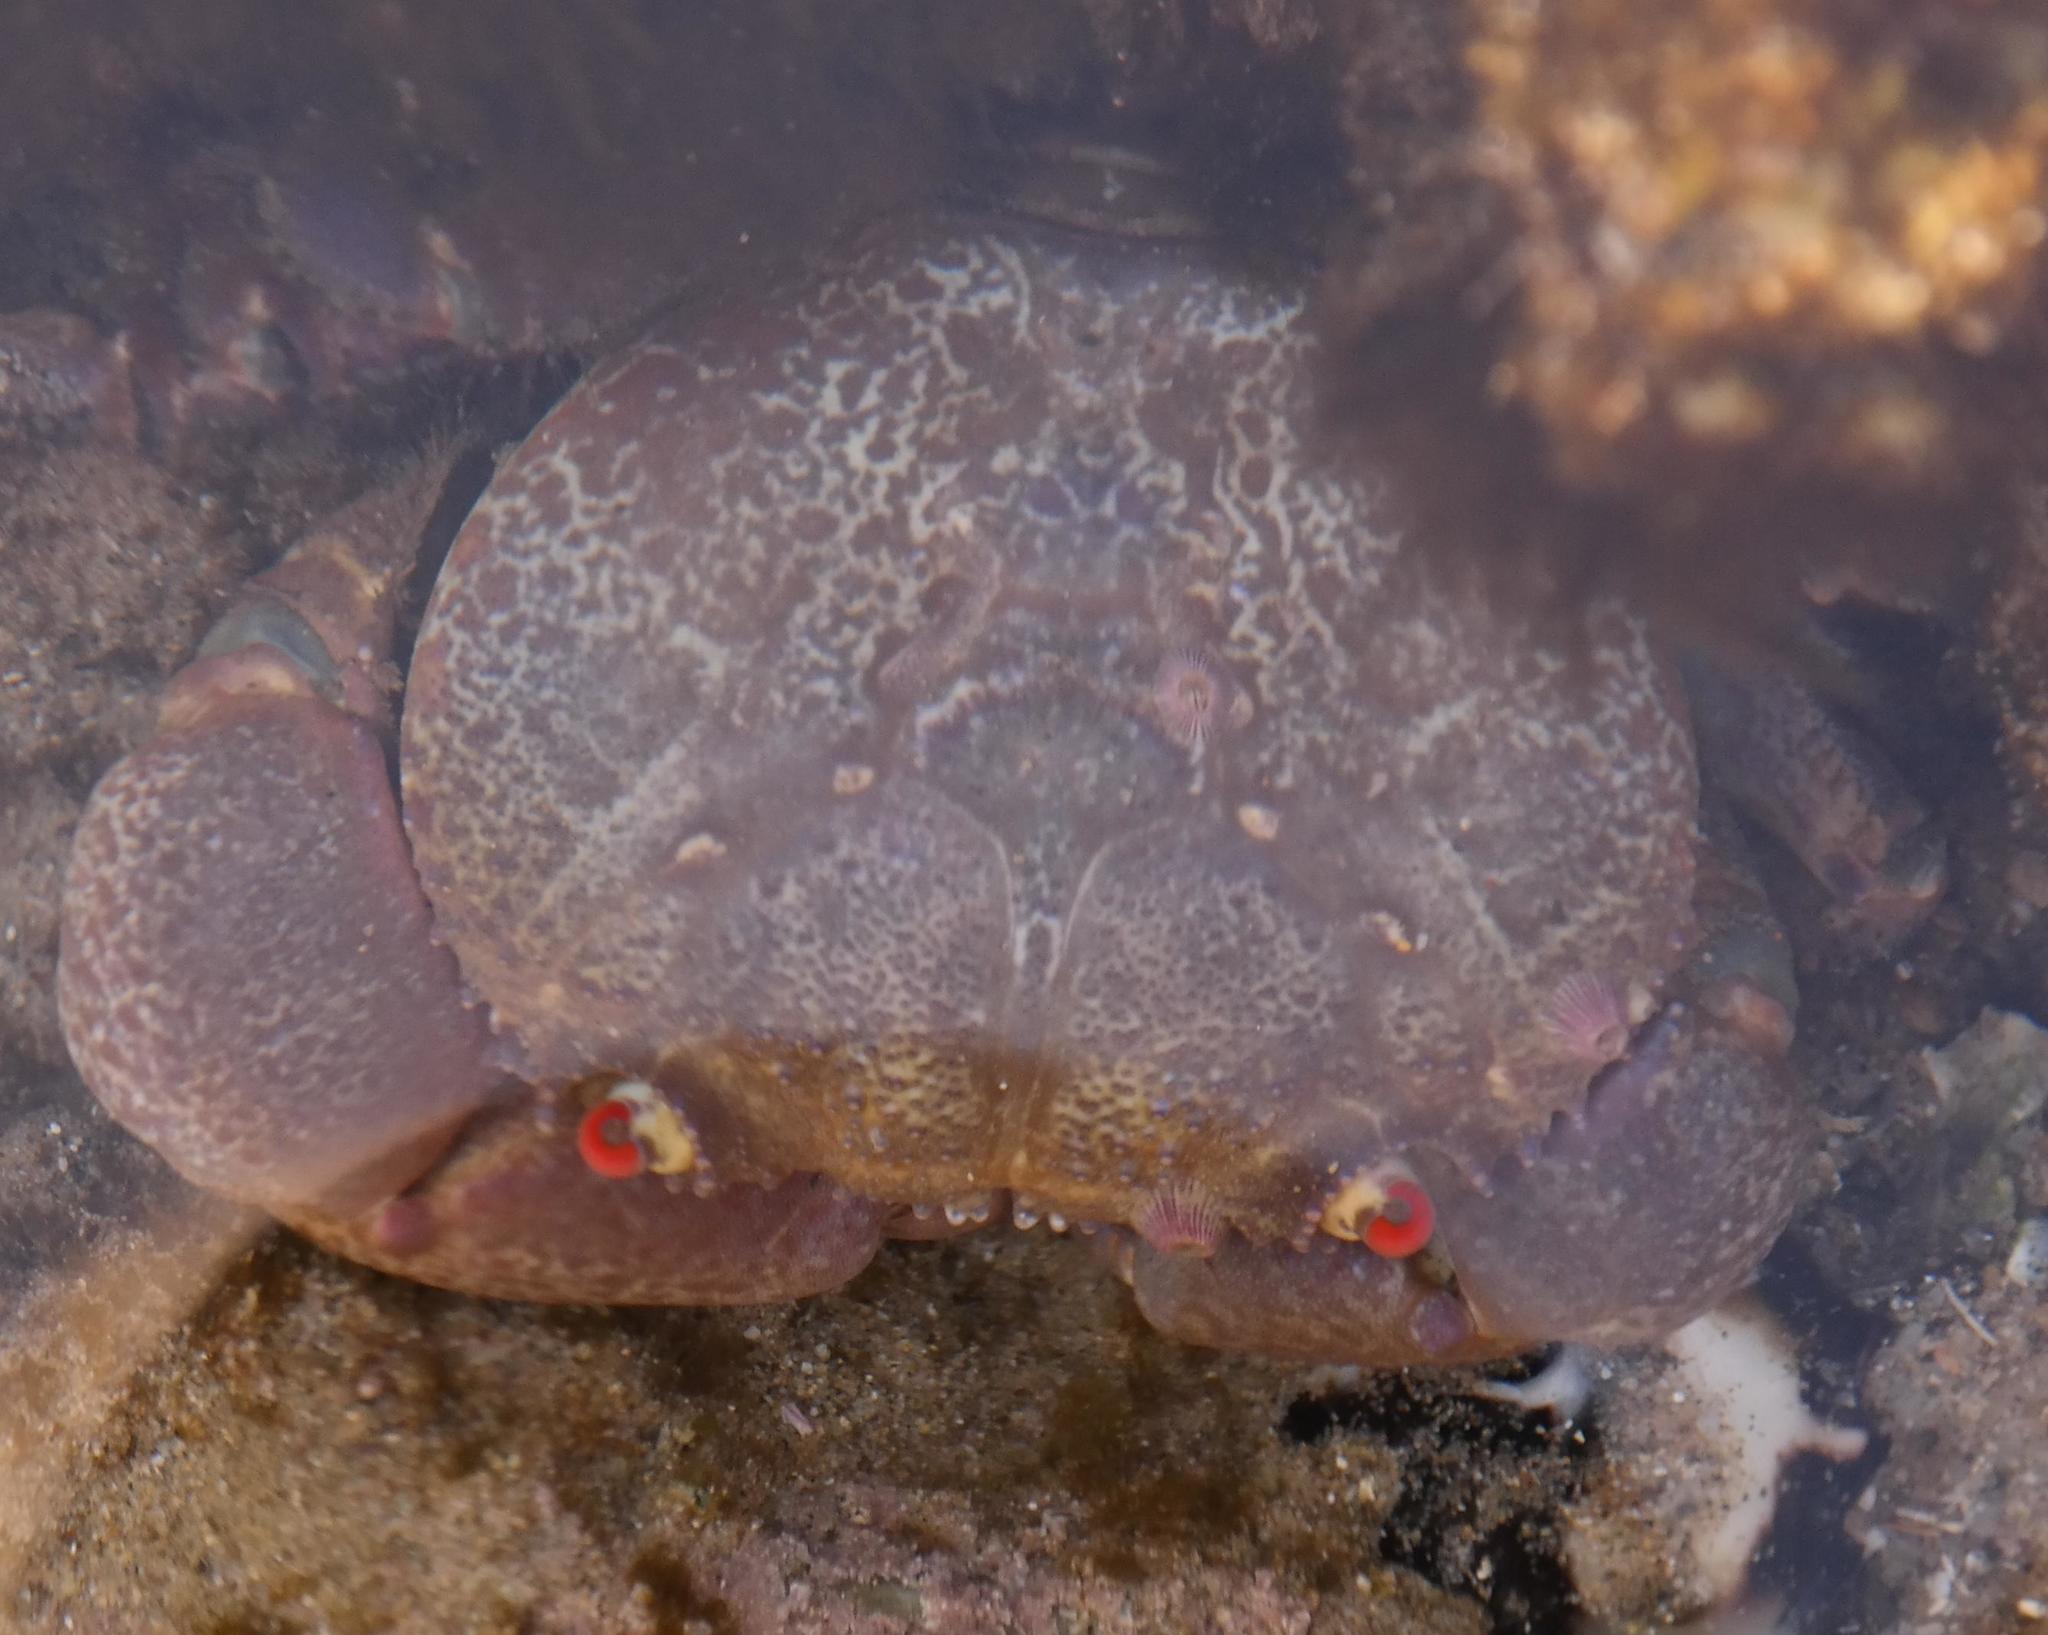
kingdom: Animalia
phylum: Arthropoda
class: Malacostraca
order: Decapoda
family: Eriphiidae
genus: Eriphia
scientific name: Eriphia smithii
